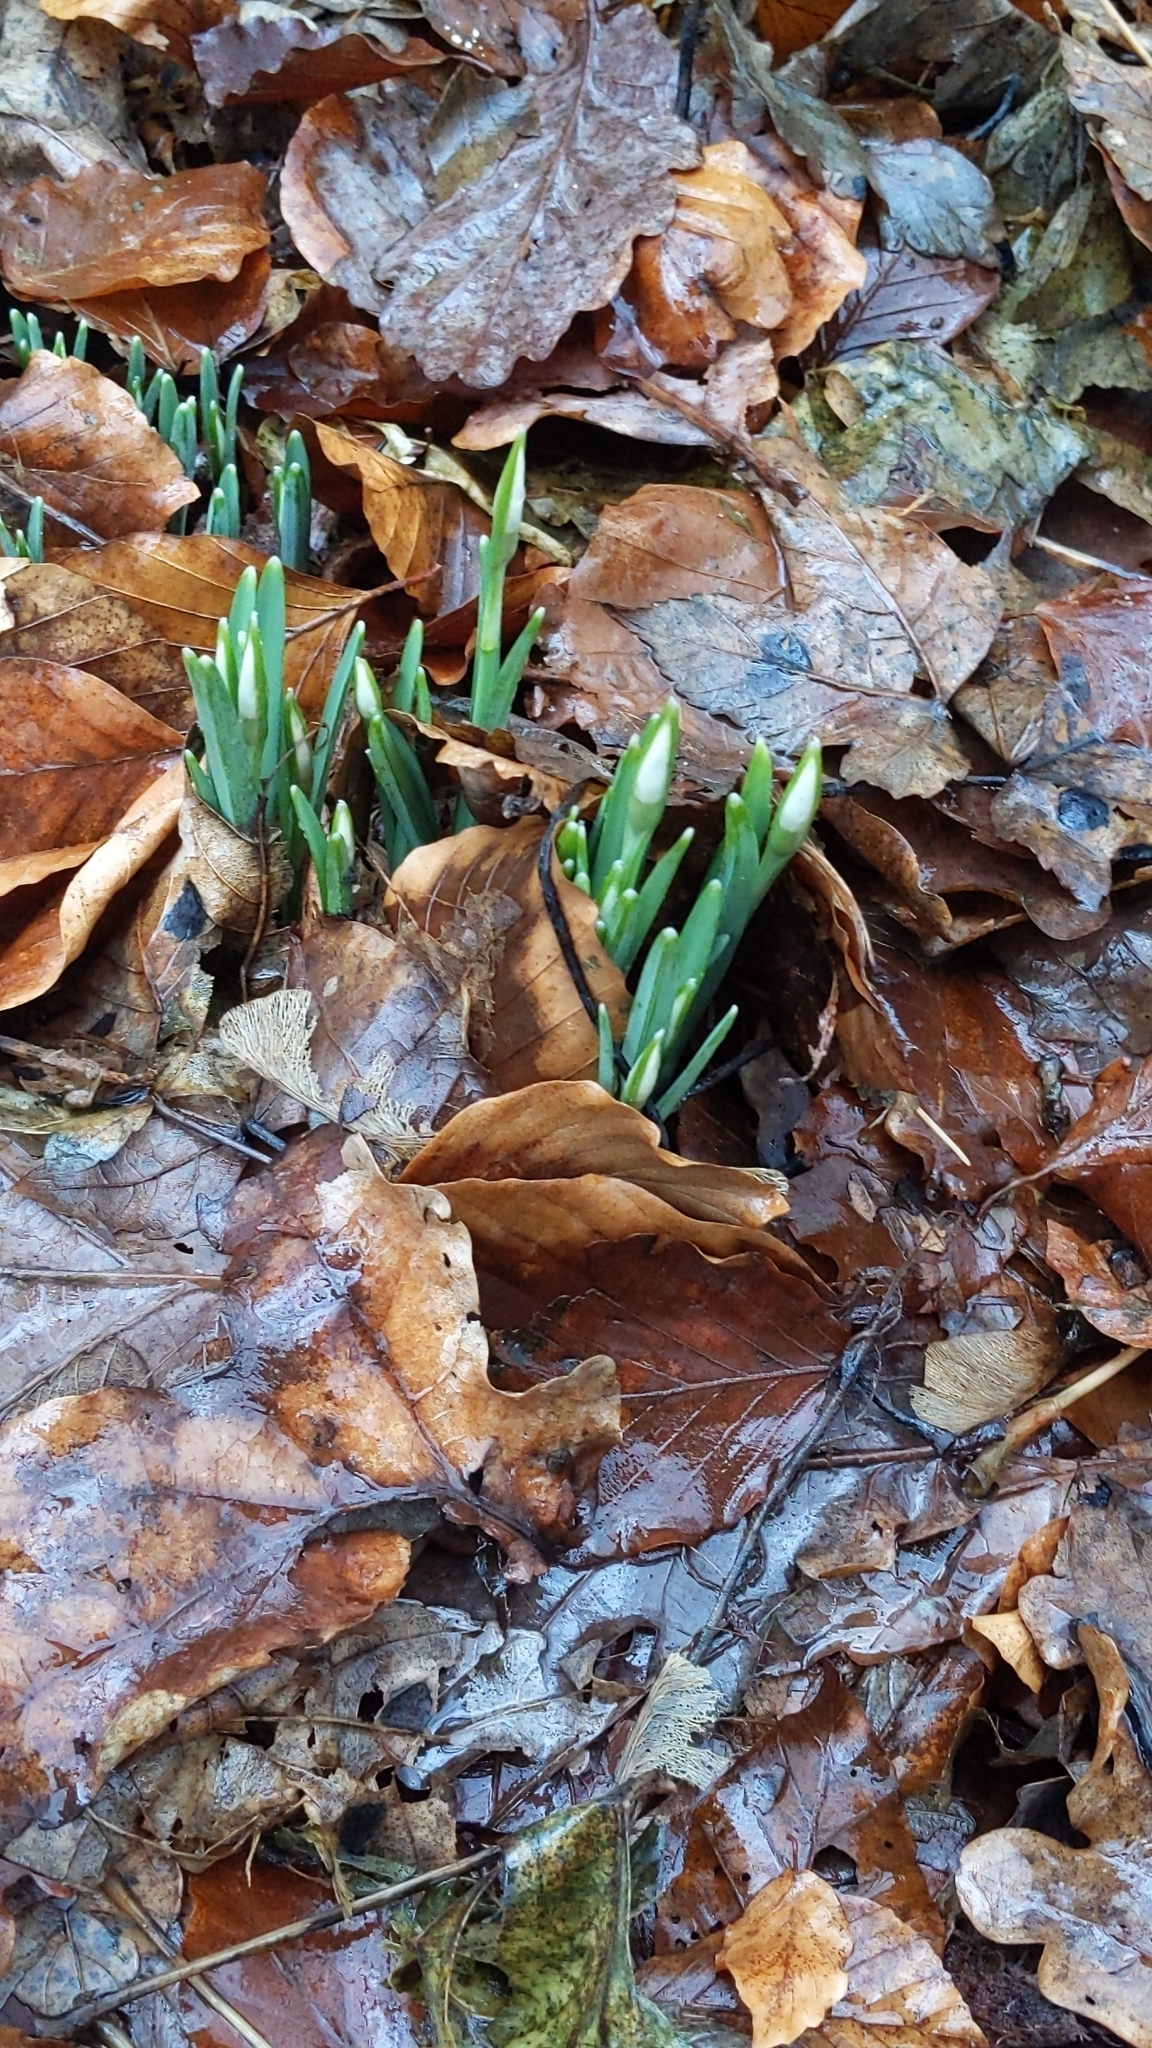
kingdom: Plantae
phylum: Tracheophyta
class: Liliopsida
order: Asparagales
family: Amaryllidaceae
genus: Galanthus
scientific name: Galanthus nivalis
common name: Snowdrop
